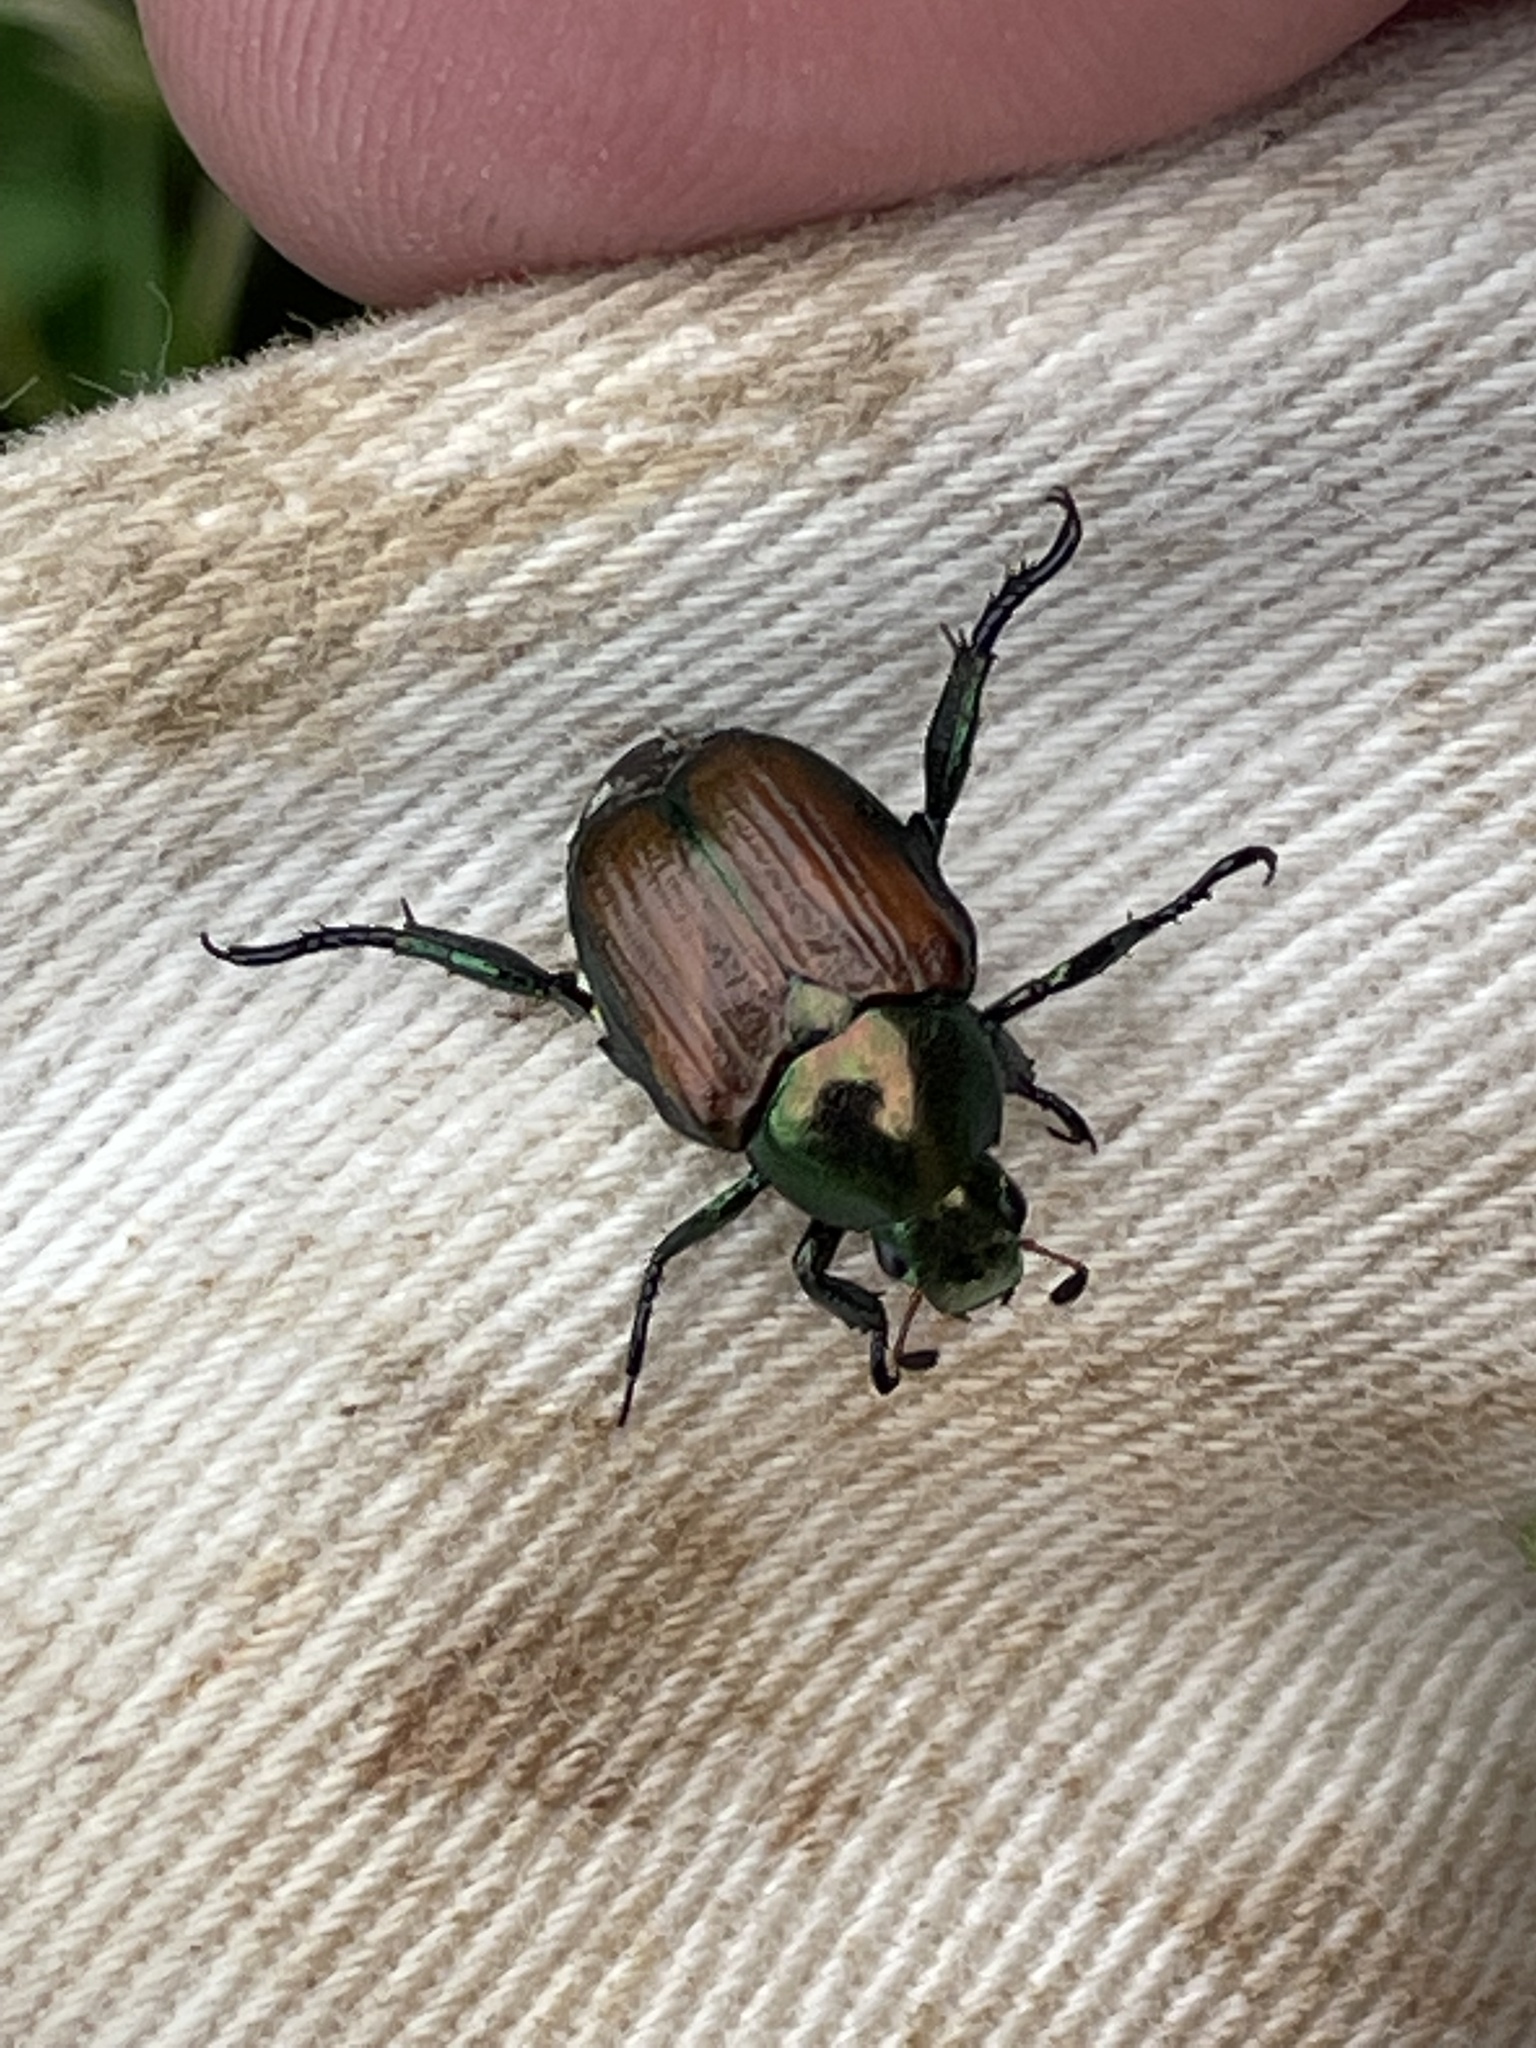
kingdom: Animalia
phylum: Arthropoda
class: Insecta
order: Coleoptera
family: Scarabaeidae
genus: Popillia
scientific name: Popillia japonica
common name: Japanese beetle
